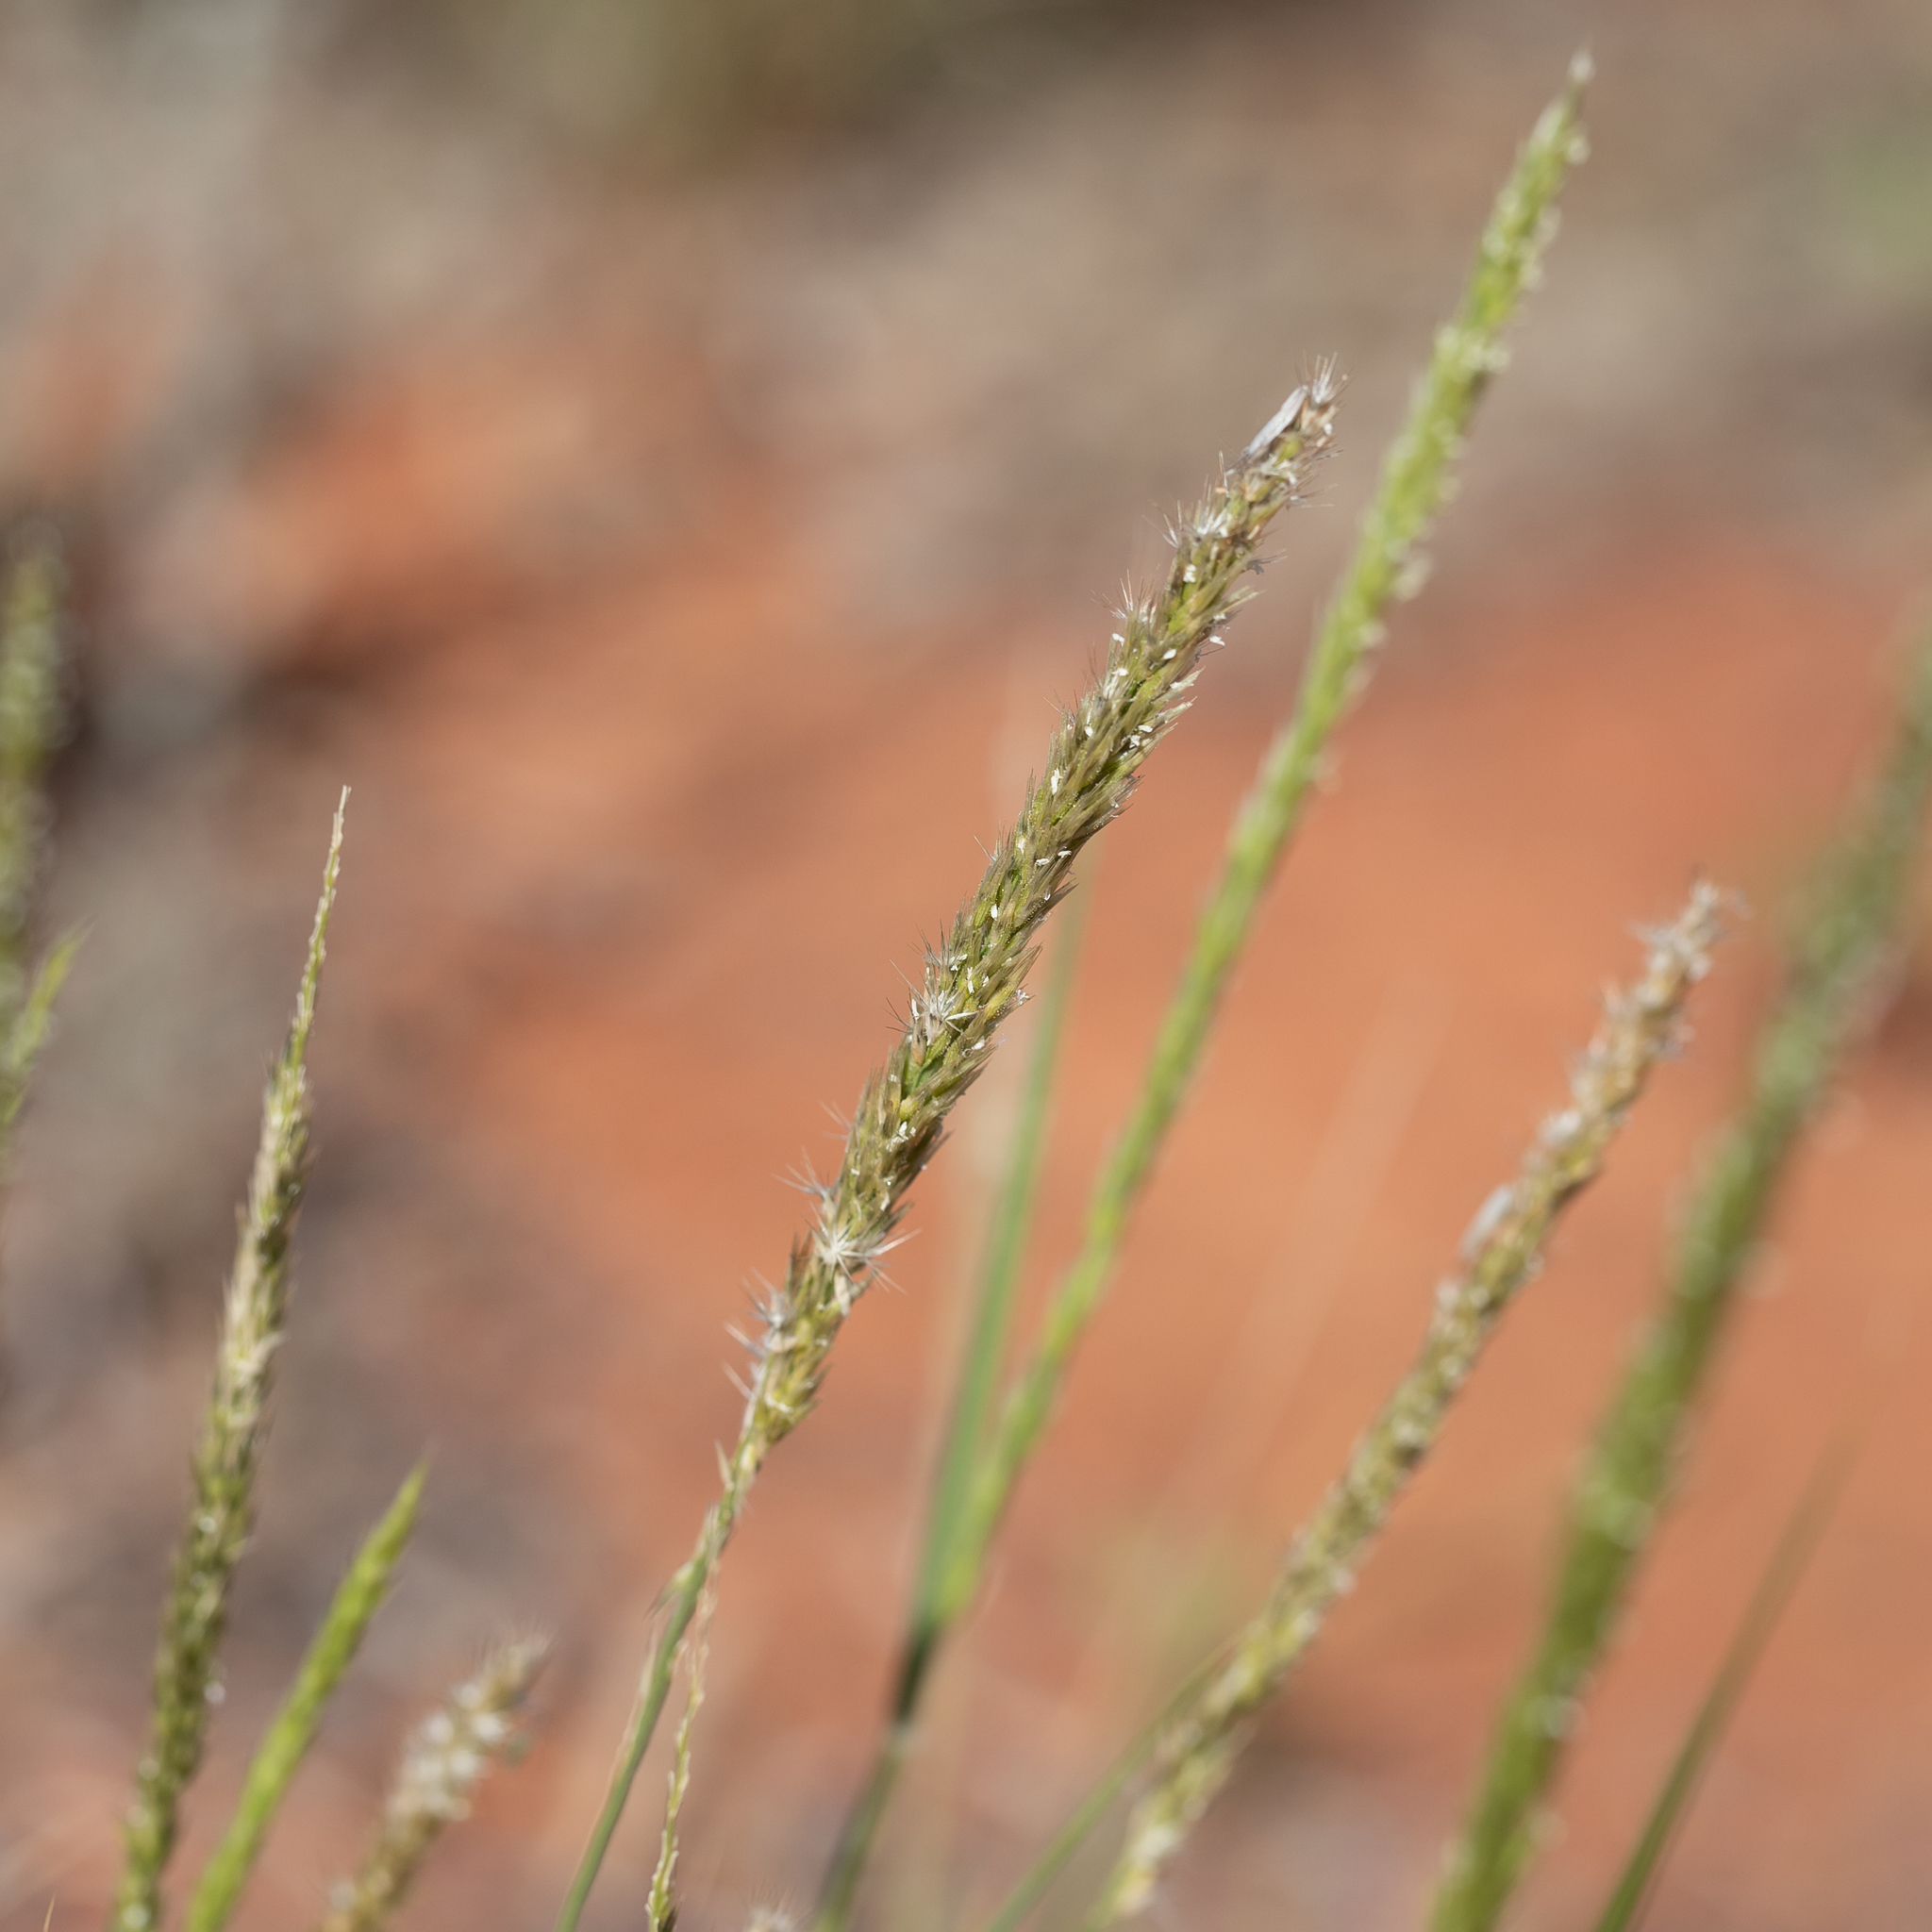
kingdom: Plantae
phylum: Tracheophyta
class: Liliopsida
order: Poales
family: Poaceae
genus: Enneapogon
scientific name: Enneapogon cylindricus
